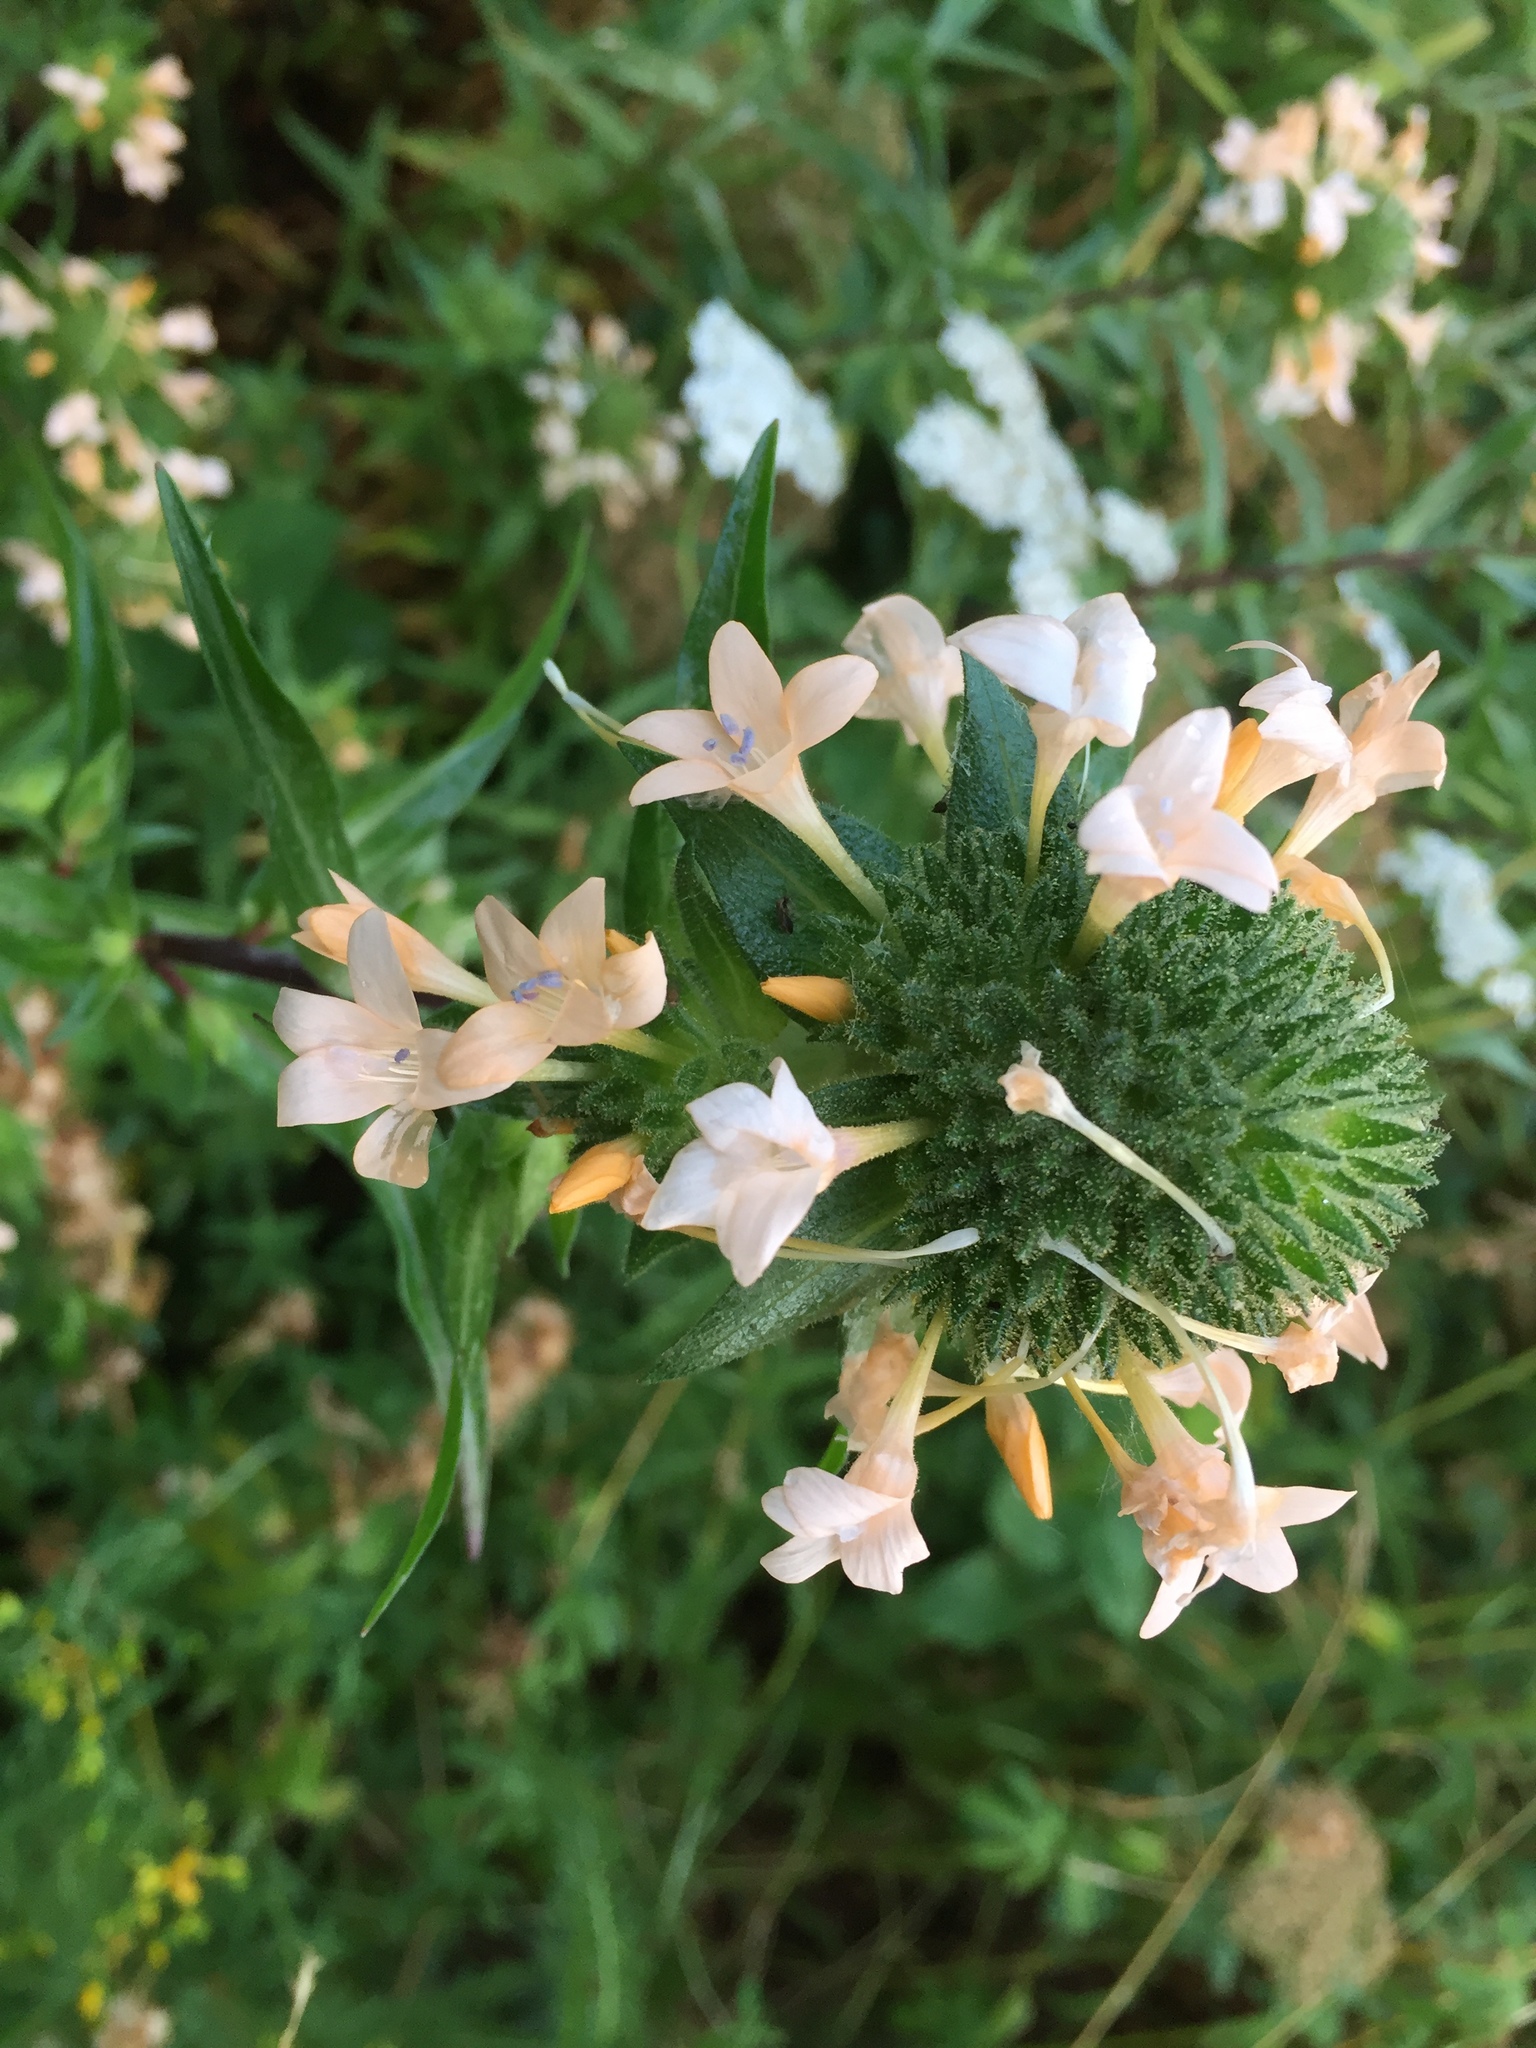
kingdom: Plantae
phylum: Tracheophyta
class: Magnoliopsida
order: Ericales
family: Polemoniaceae
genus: Collomia
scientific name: Collomia grandiflora
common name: California strawflower
